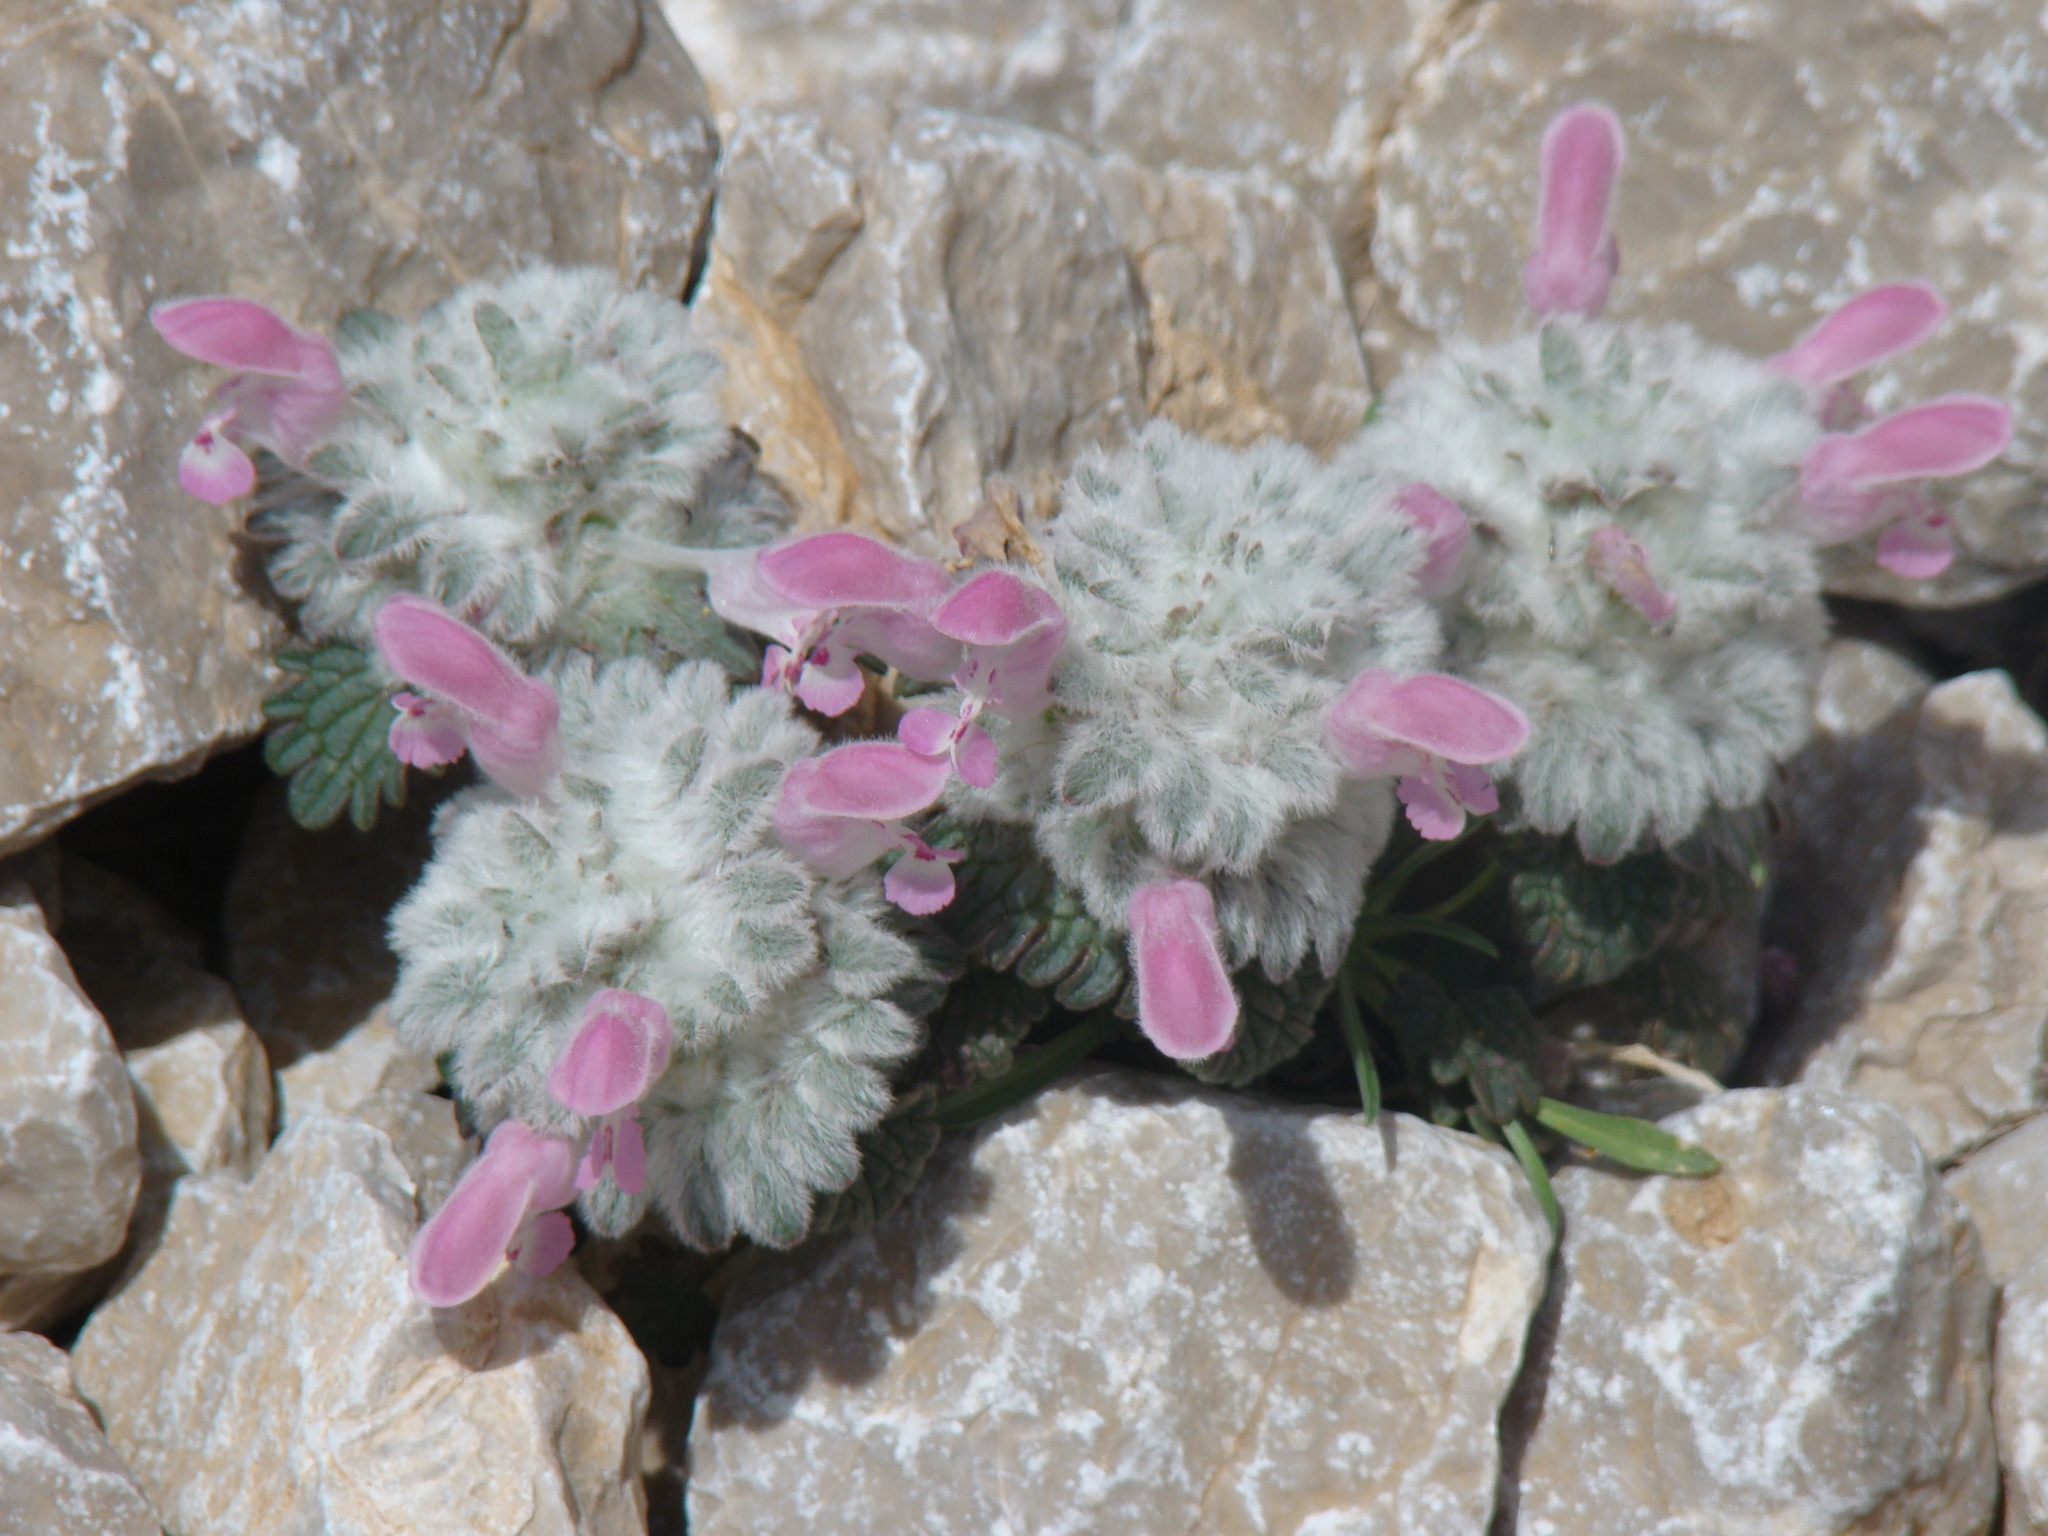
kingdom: Plantae
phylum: Tracheophyta
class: Magnoliopsida
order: Lamiales
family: Lamiaceae
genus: Lamium
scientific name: Lamium eriocephalum
